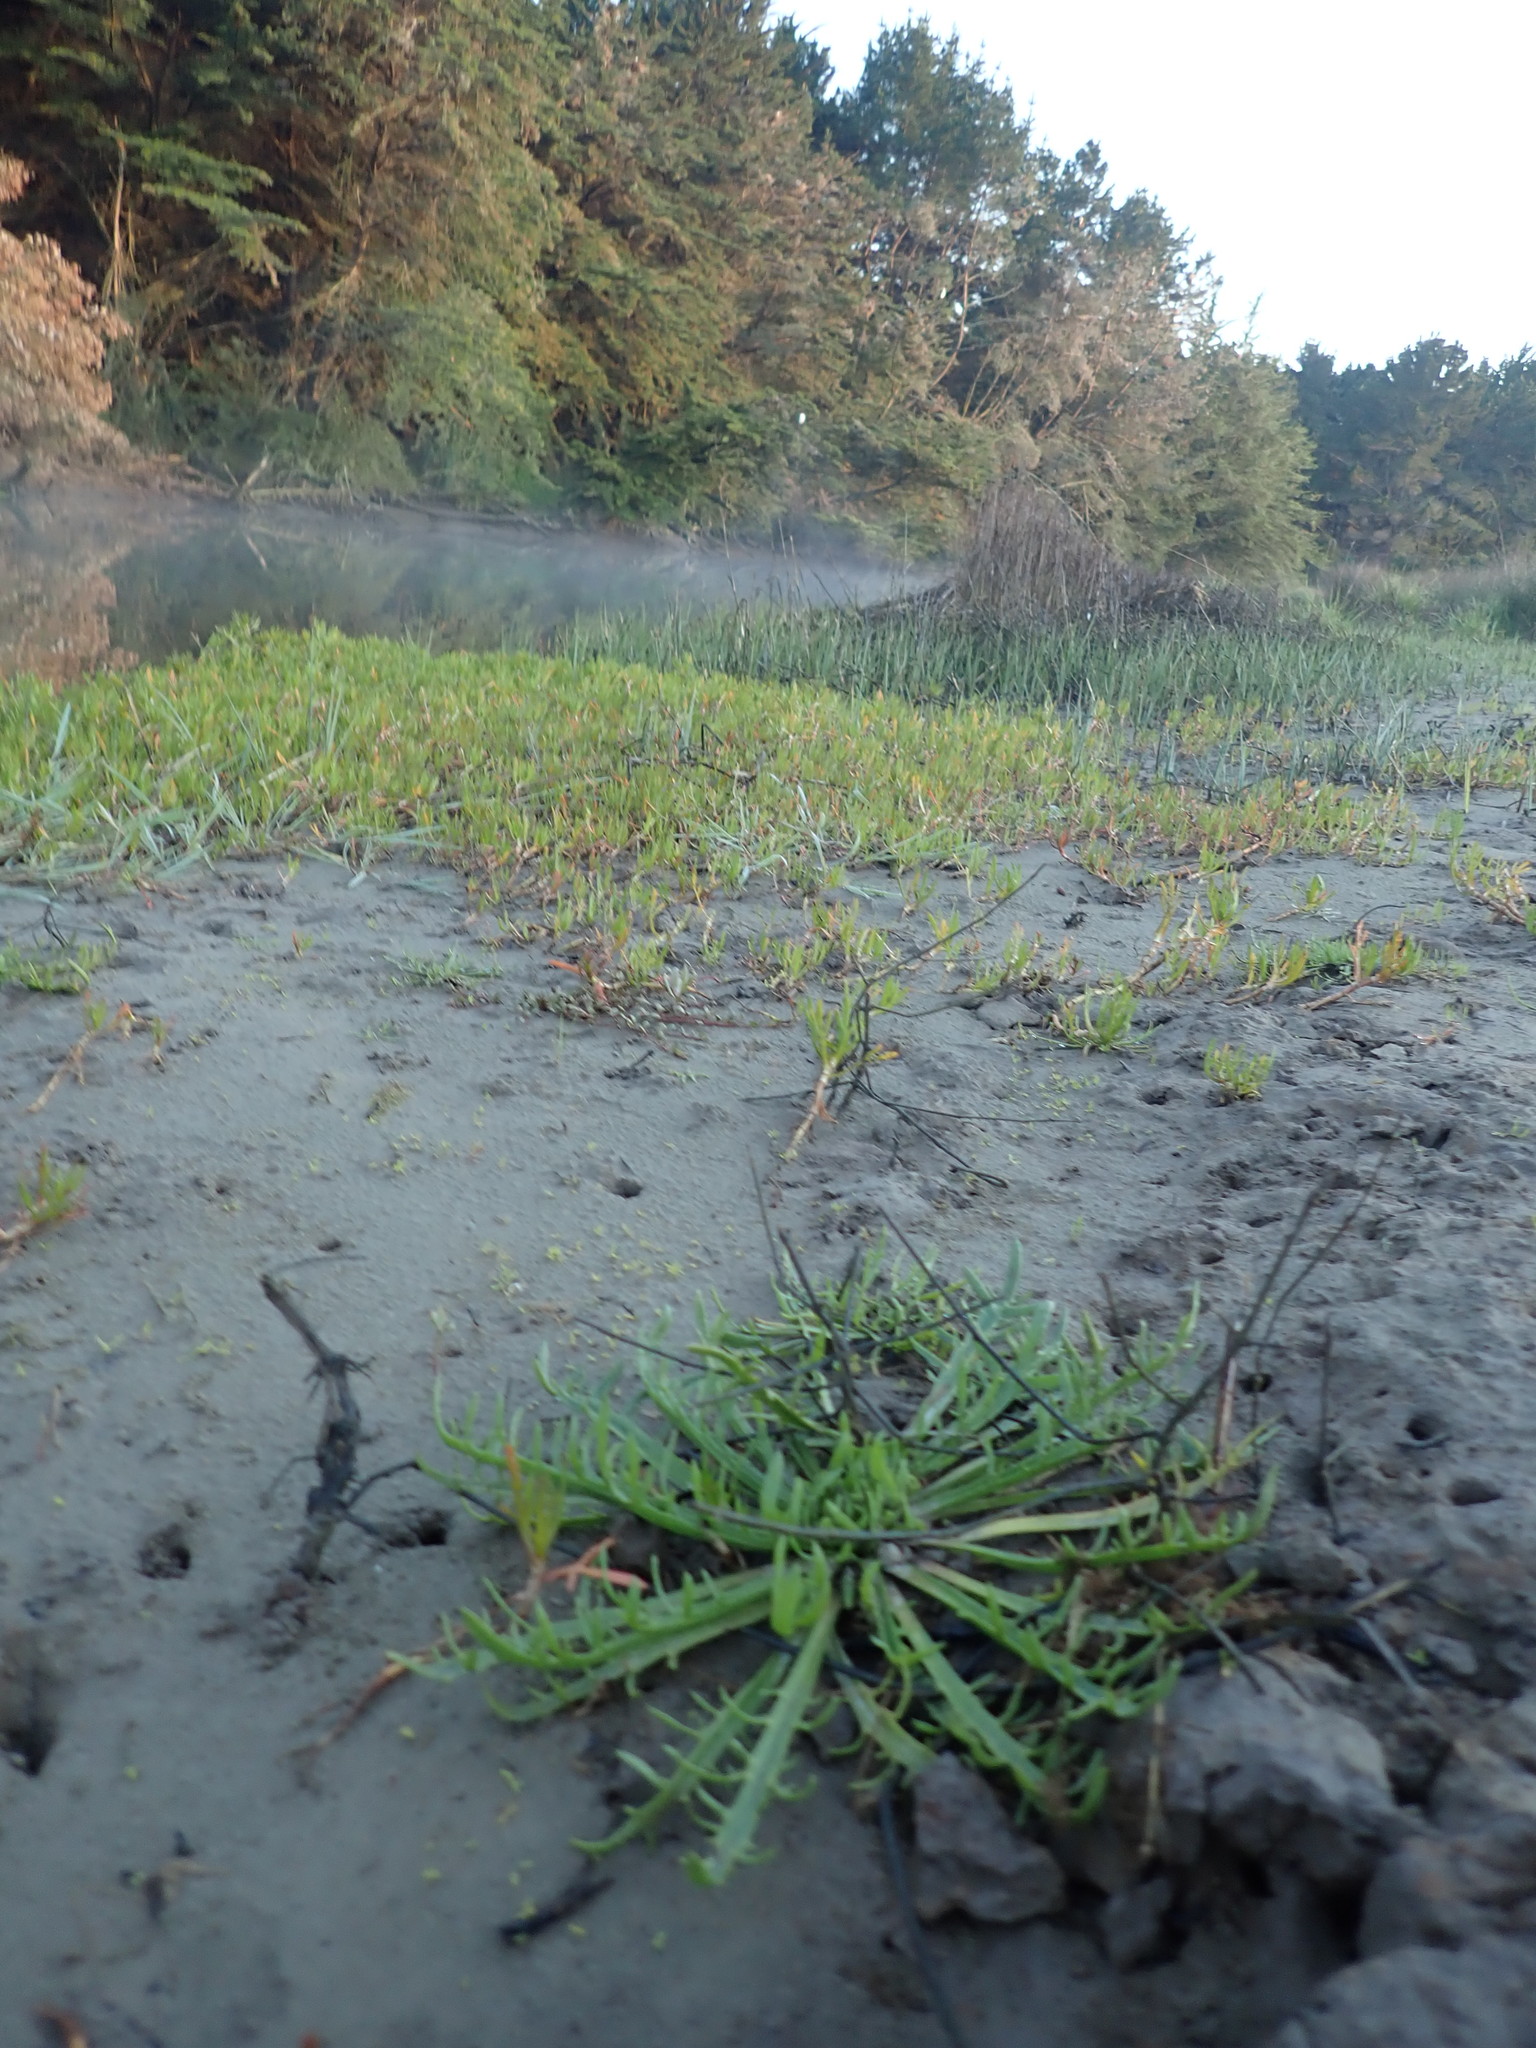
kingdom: Plantae
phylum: Tracheophyta
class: Magnoliopsida
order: Lamiales
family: Plantaginaceae
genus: Plantago
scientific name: Plantago coronopus
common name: Buck's-horn plantain
